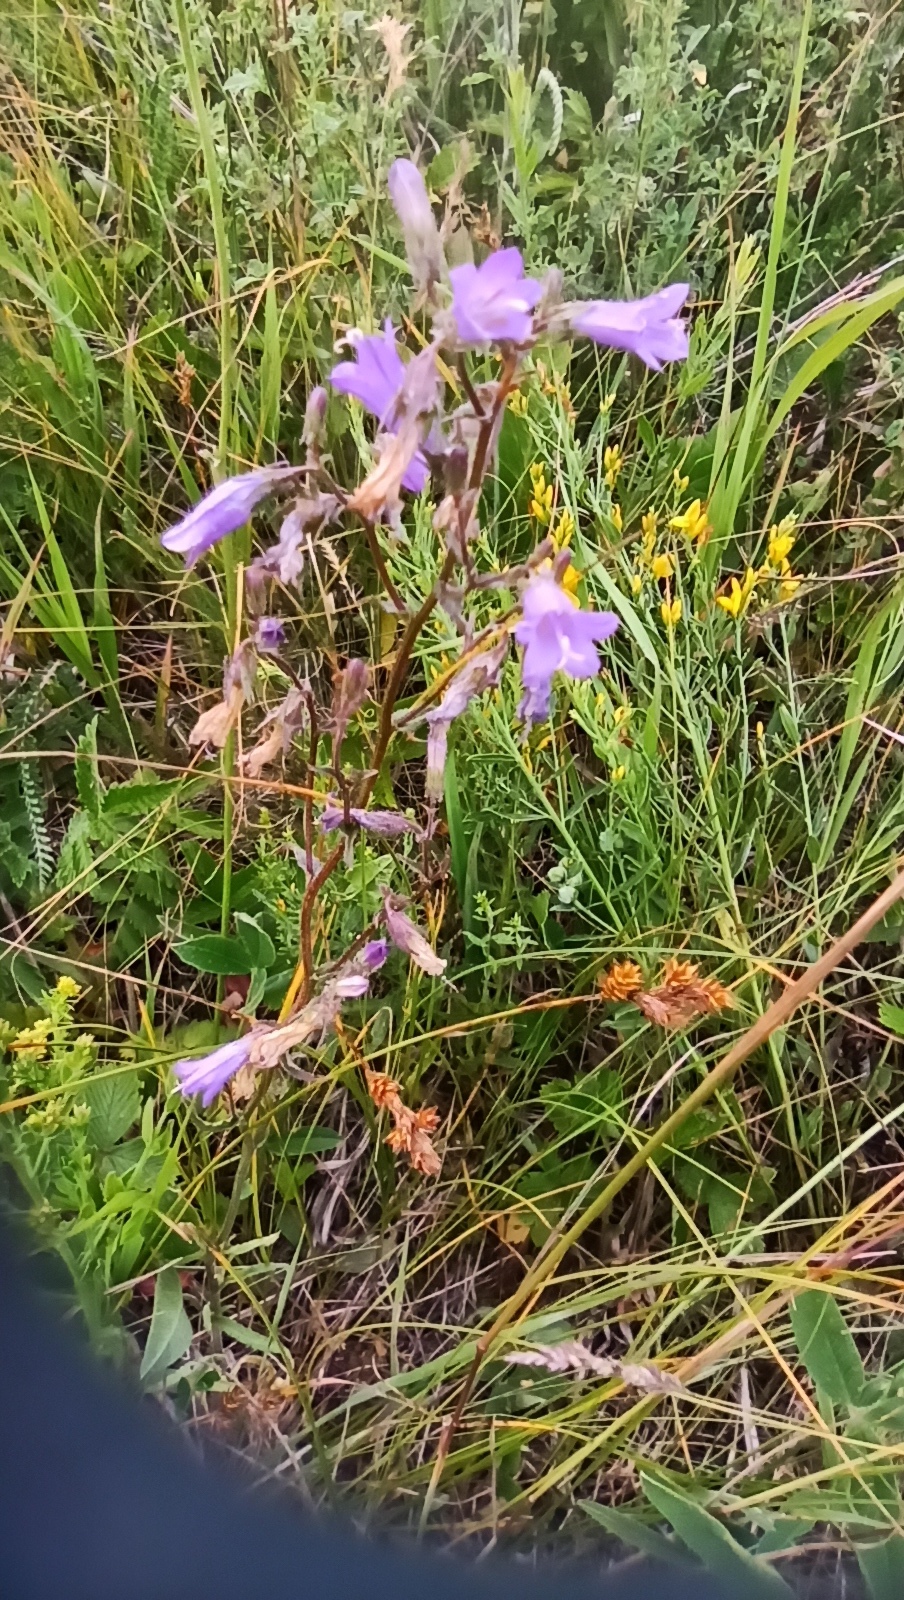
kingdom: Plantae
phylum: Tracheophyta
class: Magnoliopsida
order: Asterales
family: Campanulaceae
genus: Campanula
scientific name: Campanula sibirica
